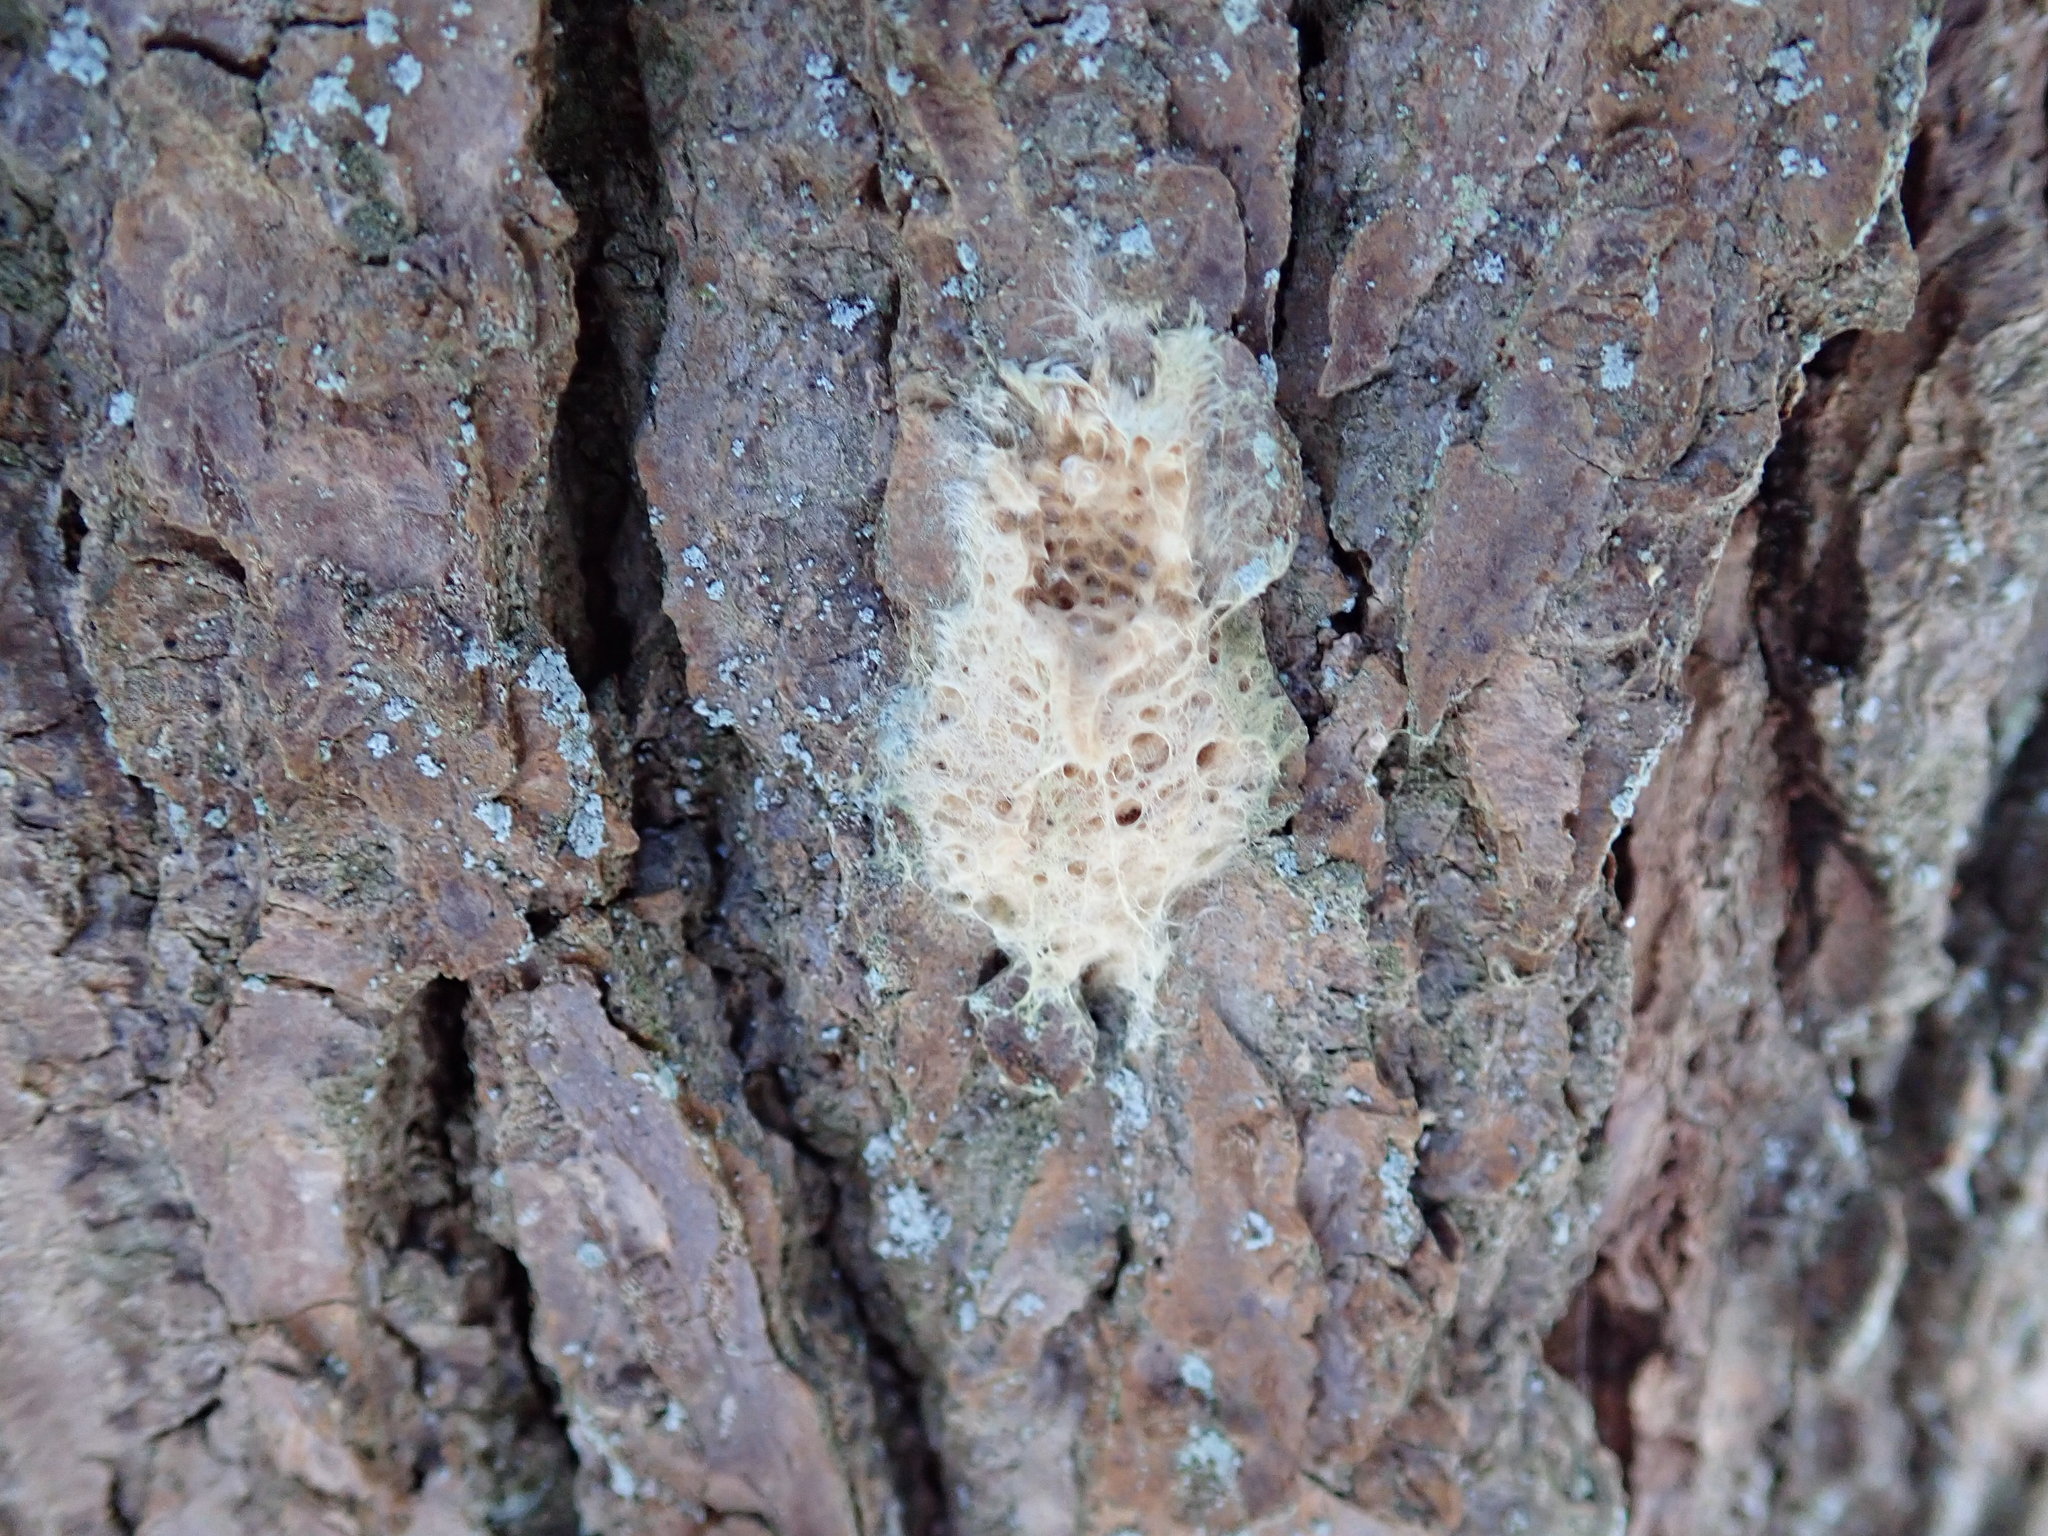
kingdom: Animalia
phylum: Arthropoda
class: Insecta
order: Lepidoptera
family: Erebidae
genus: Lymantria
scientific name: Lymantria dispar
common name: Gypsy moth
